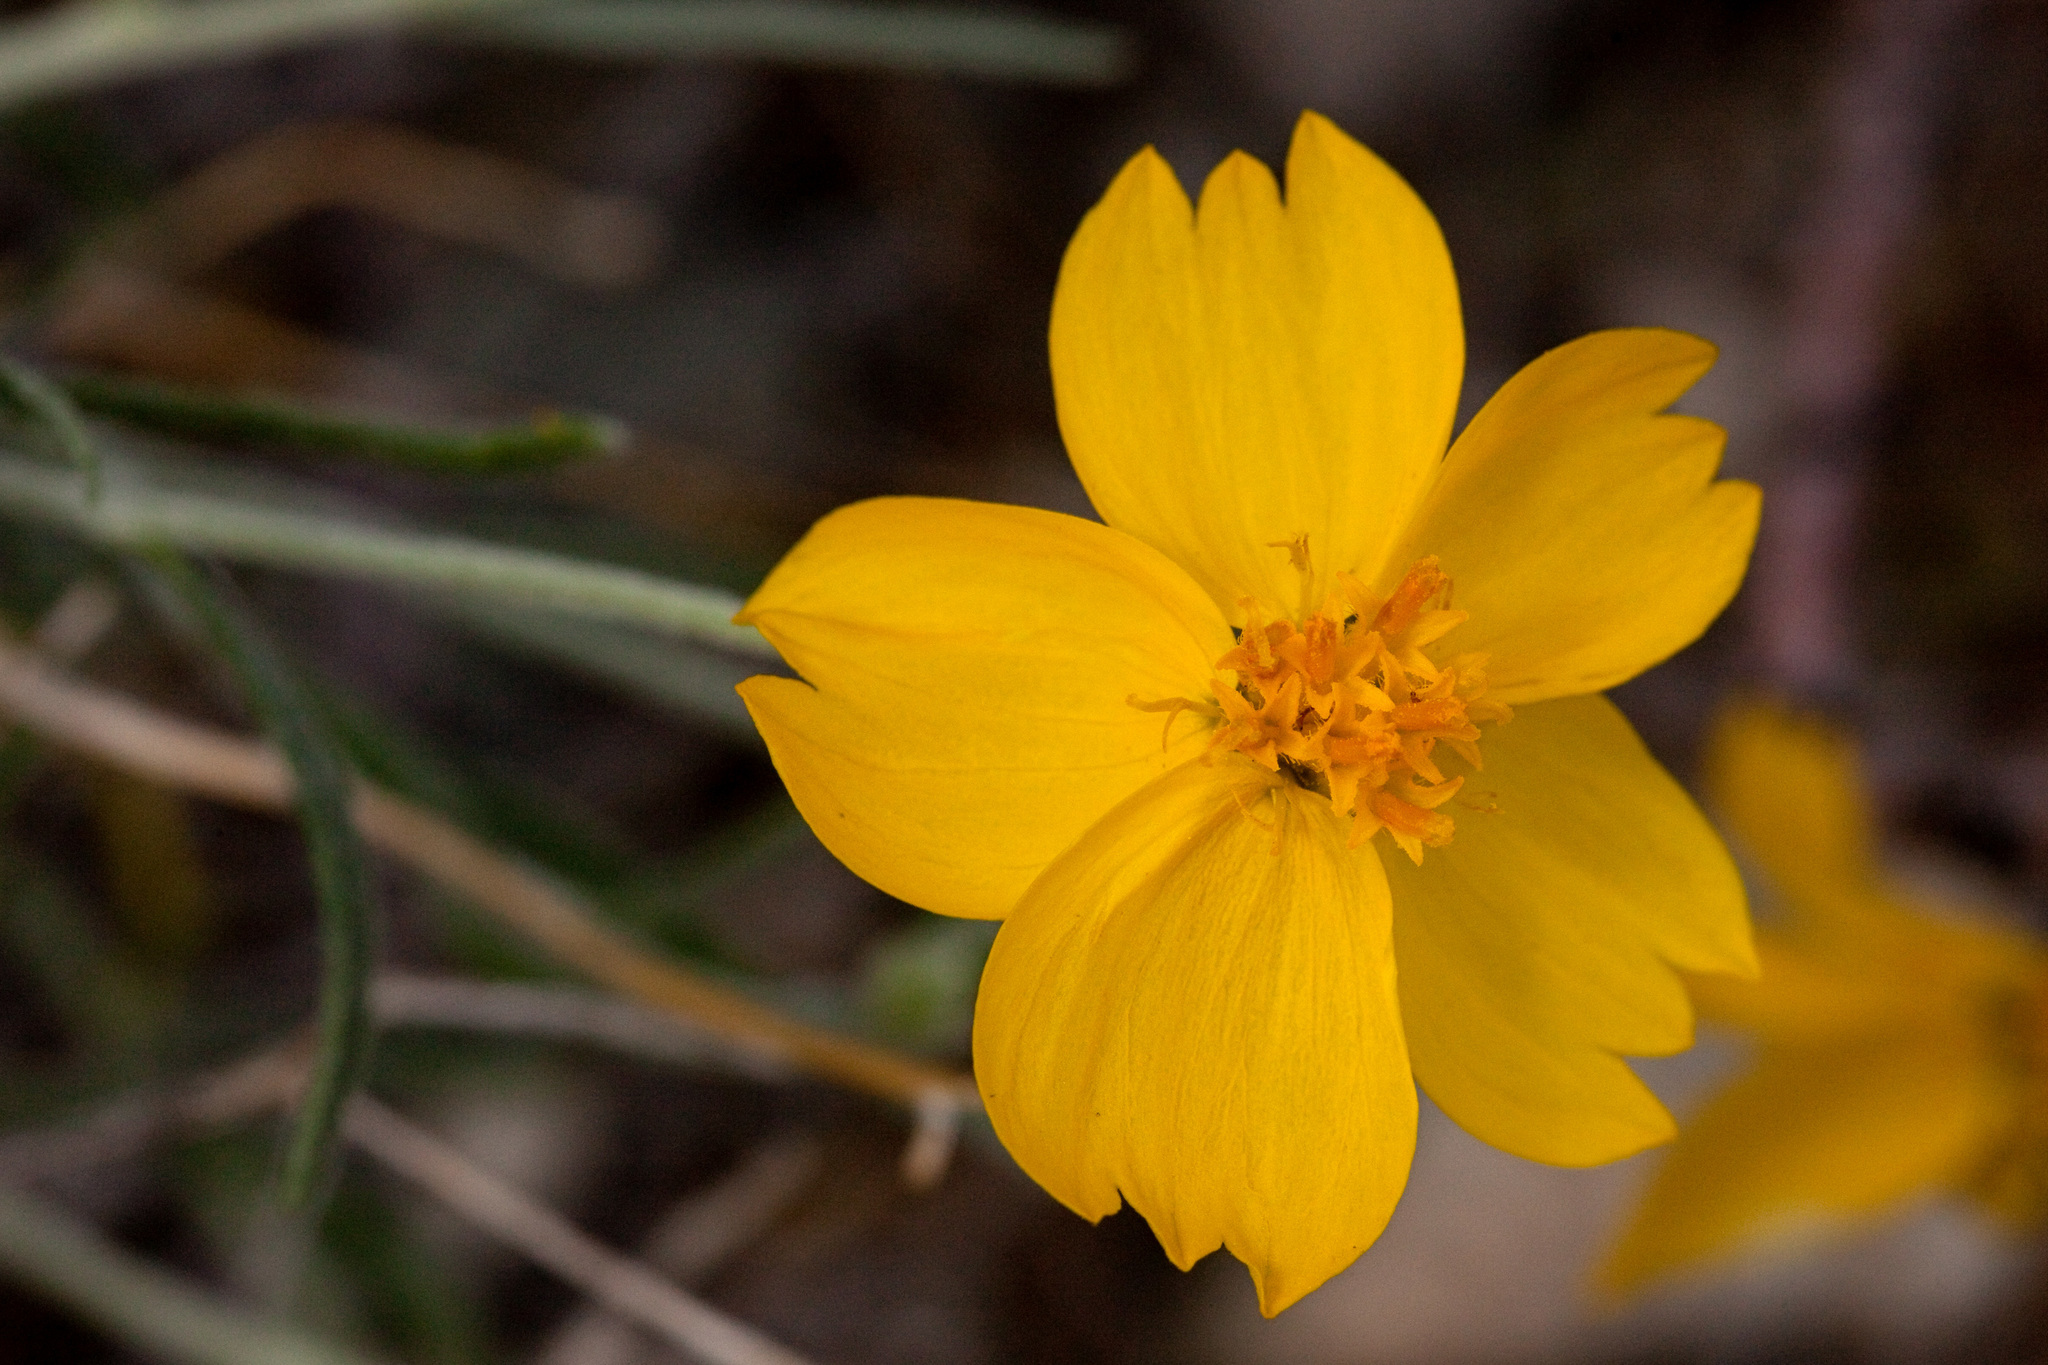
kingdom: Plantae
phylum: Tracheophyta
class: Magnoliopsida
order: Asterales
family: Asteraceae
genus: Psilostrophe
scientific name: Psilostrophe cooperi
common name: White-stem paper-flower
